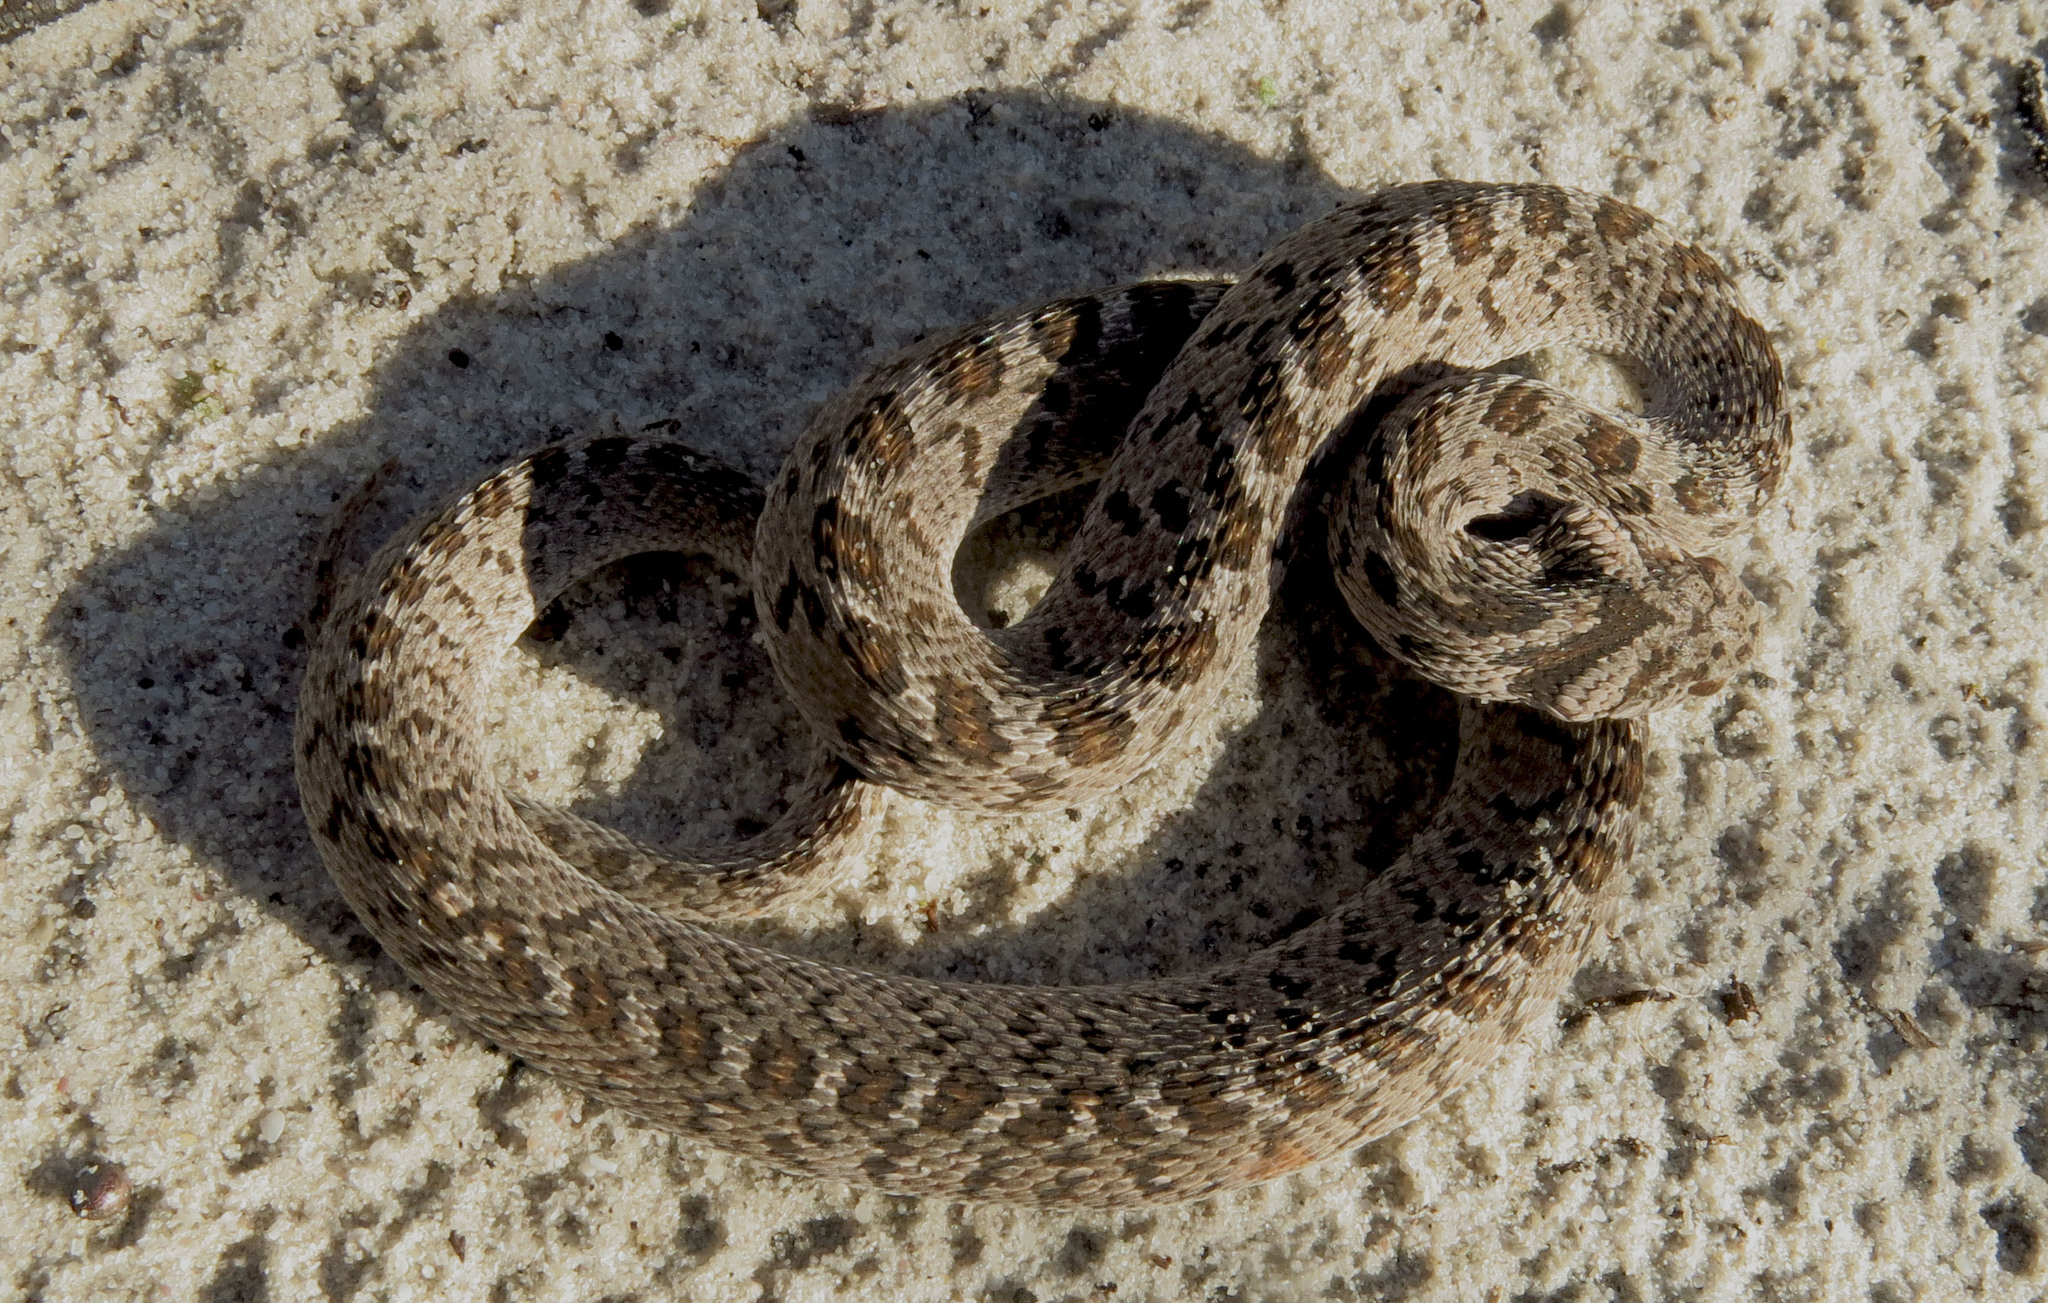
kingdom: Animalia
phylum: Chordata
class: Squamata
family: Colubridae
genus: Dasypeltis
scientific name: Dasypeltis scabra
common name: Common egg eater
